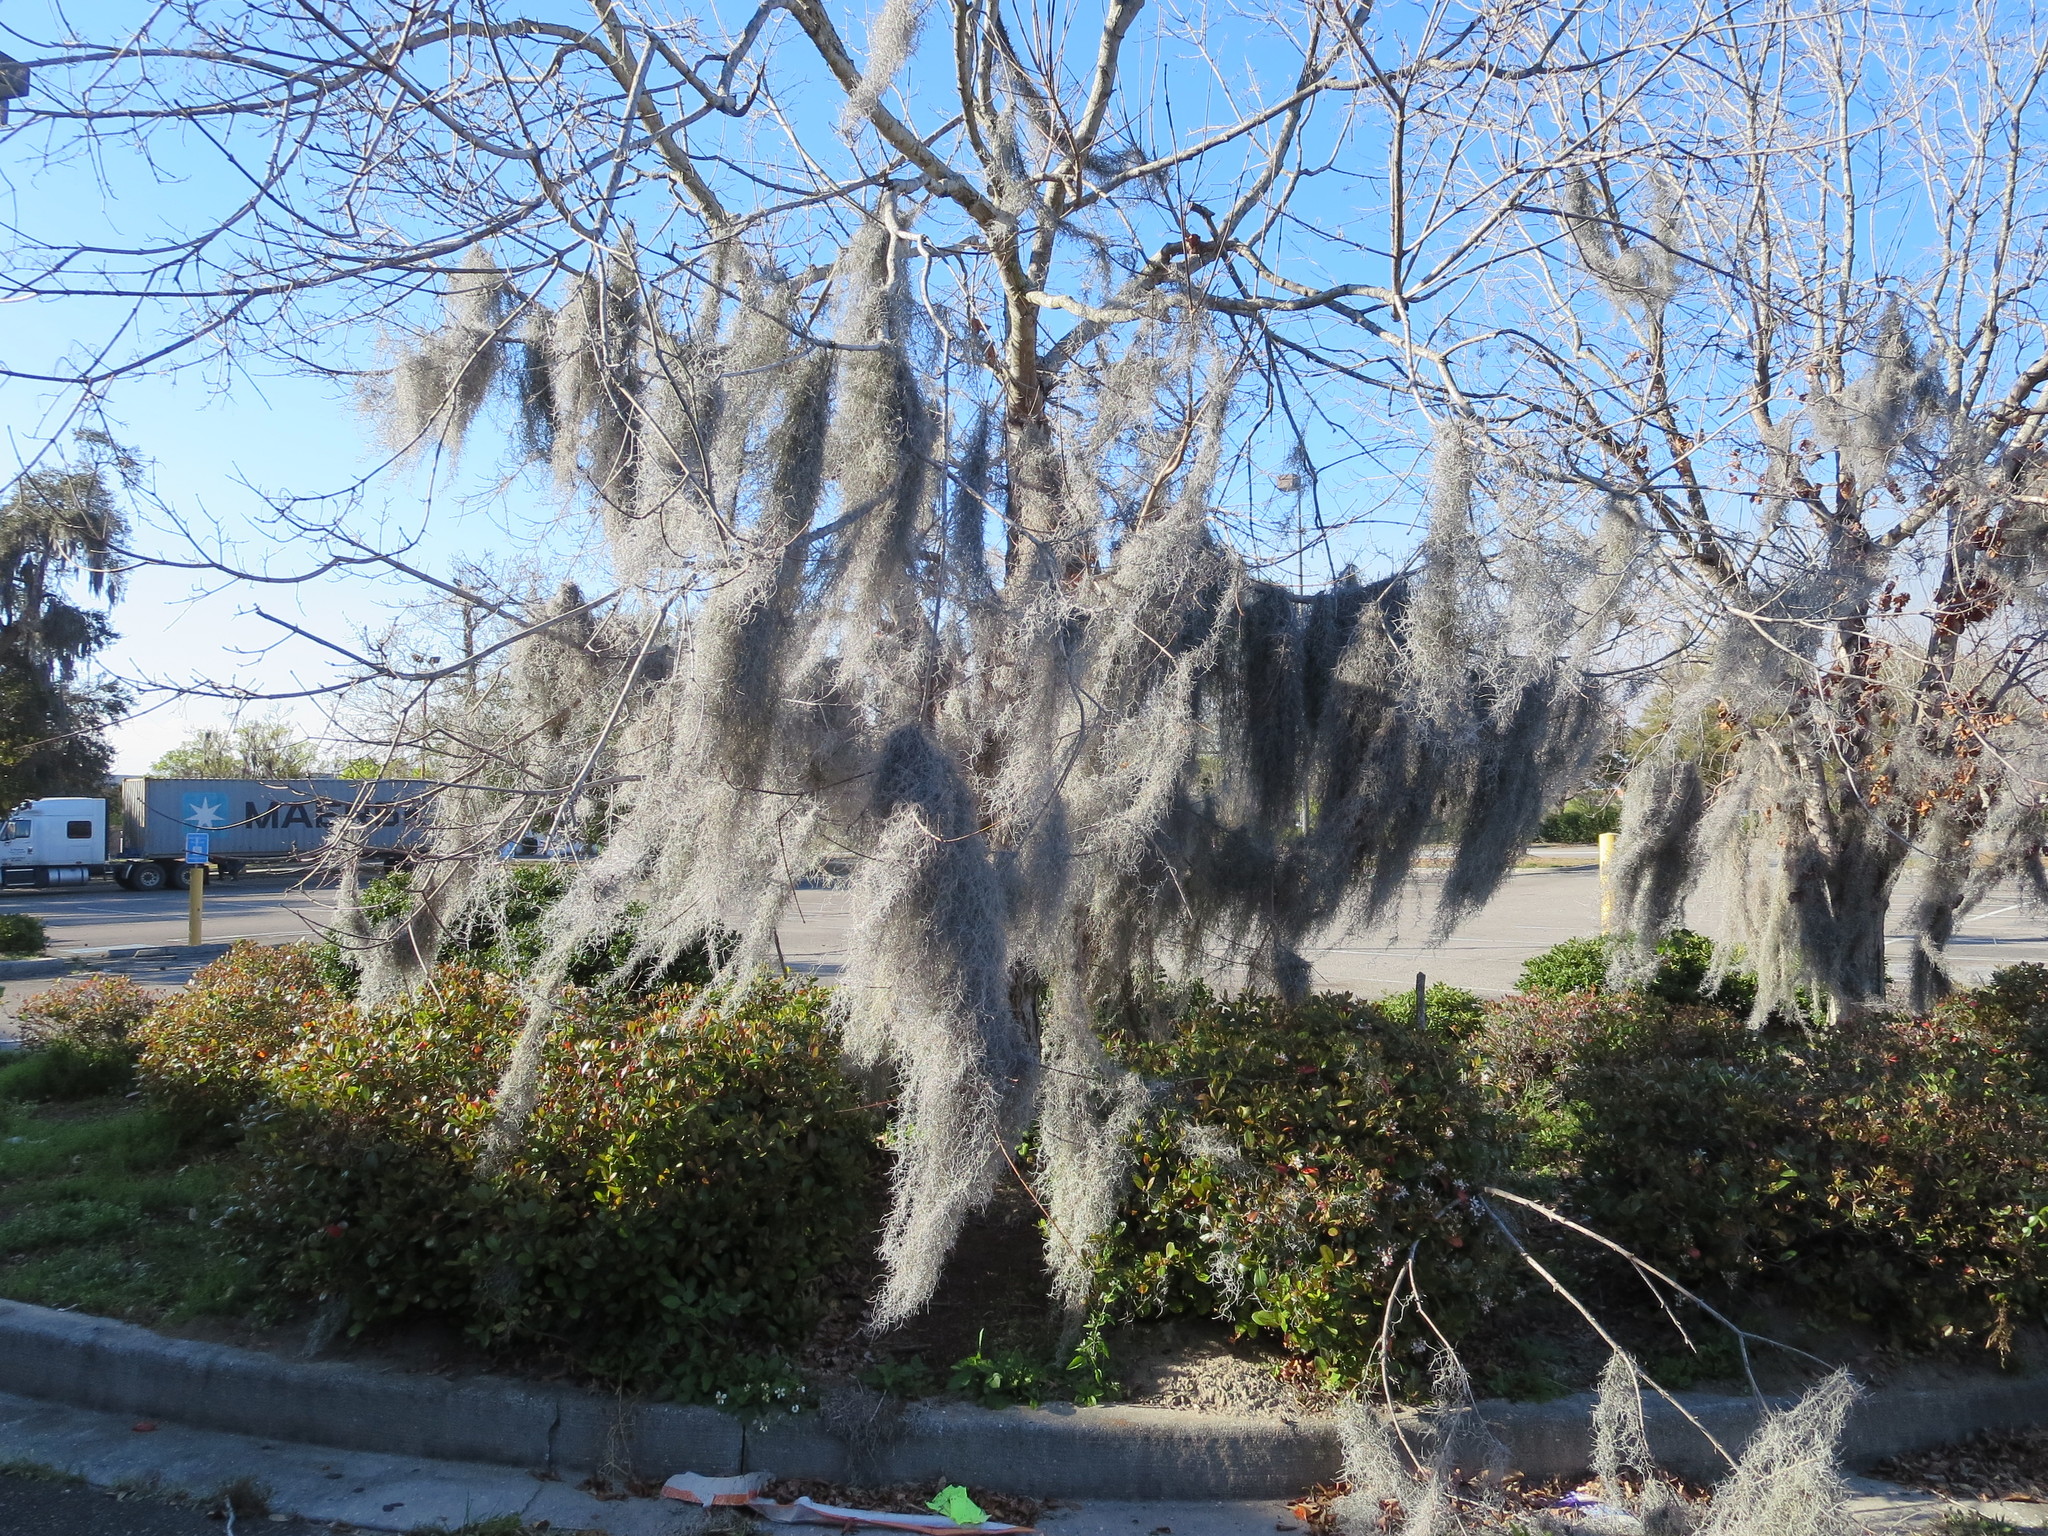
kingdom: Plantae
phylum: Tracheophyta
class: Liliopsida
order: Poales
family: Bromeliaceae
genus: Tillandsia
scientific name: Tillandsia usneoides
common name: Spanish moss
